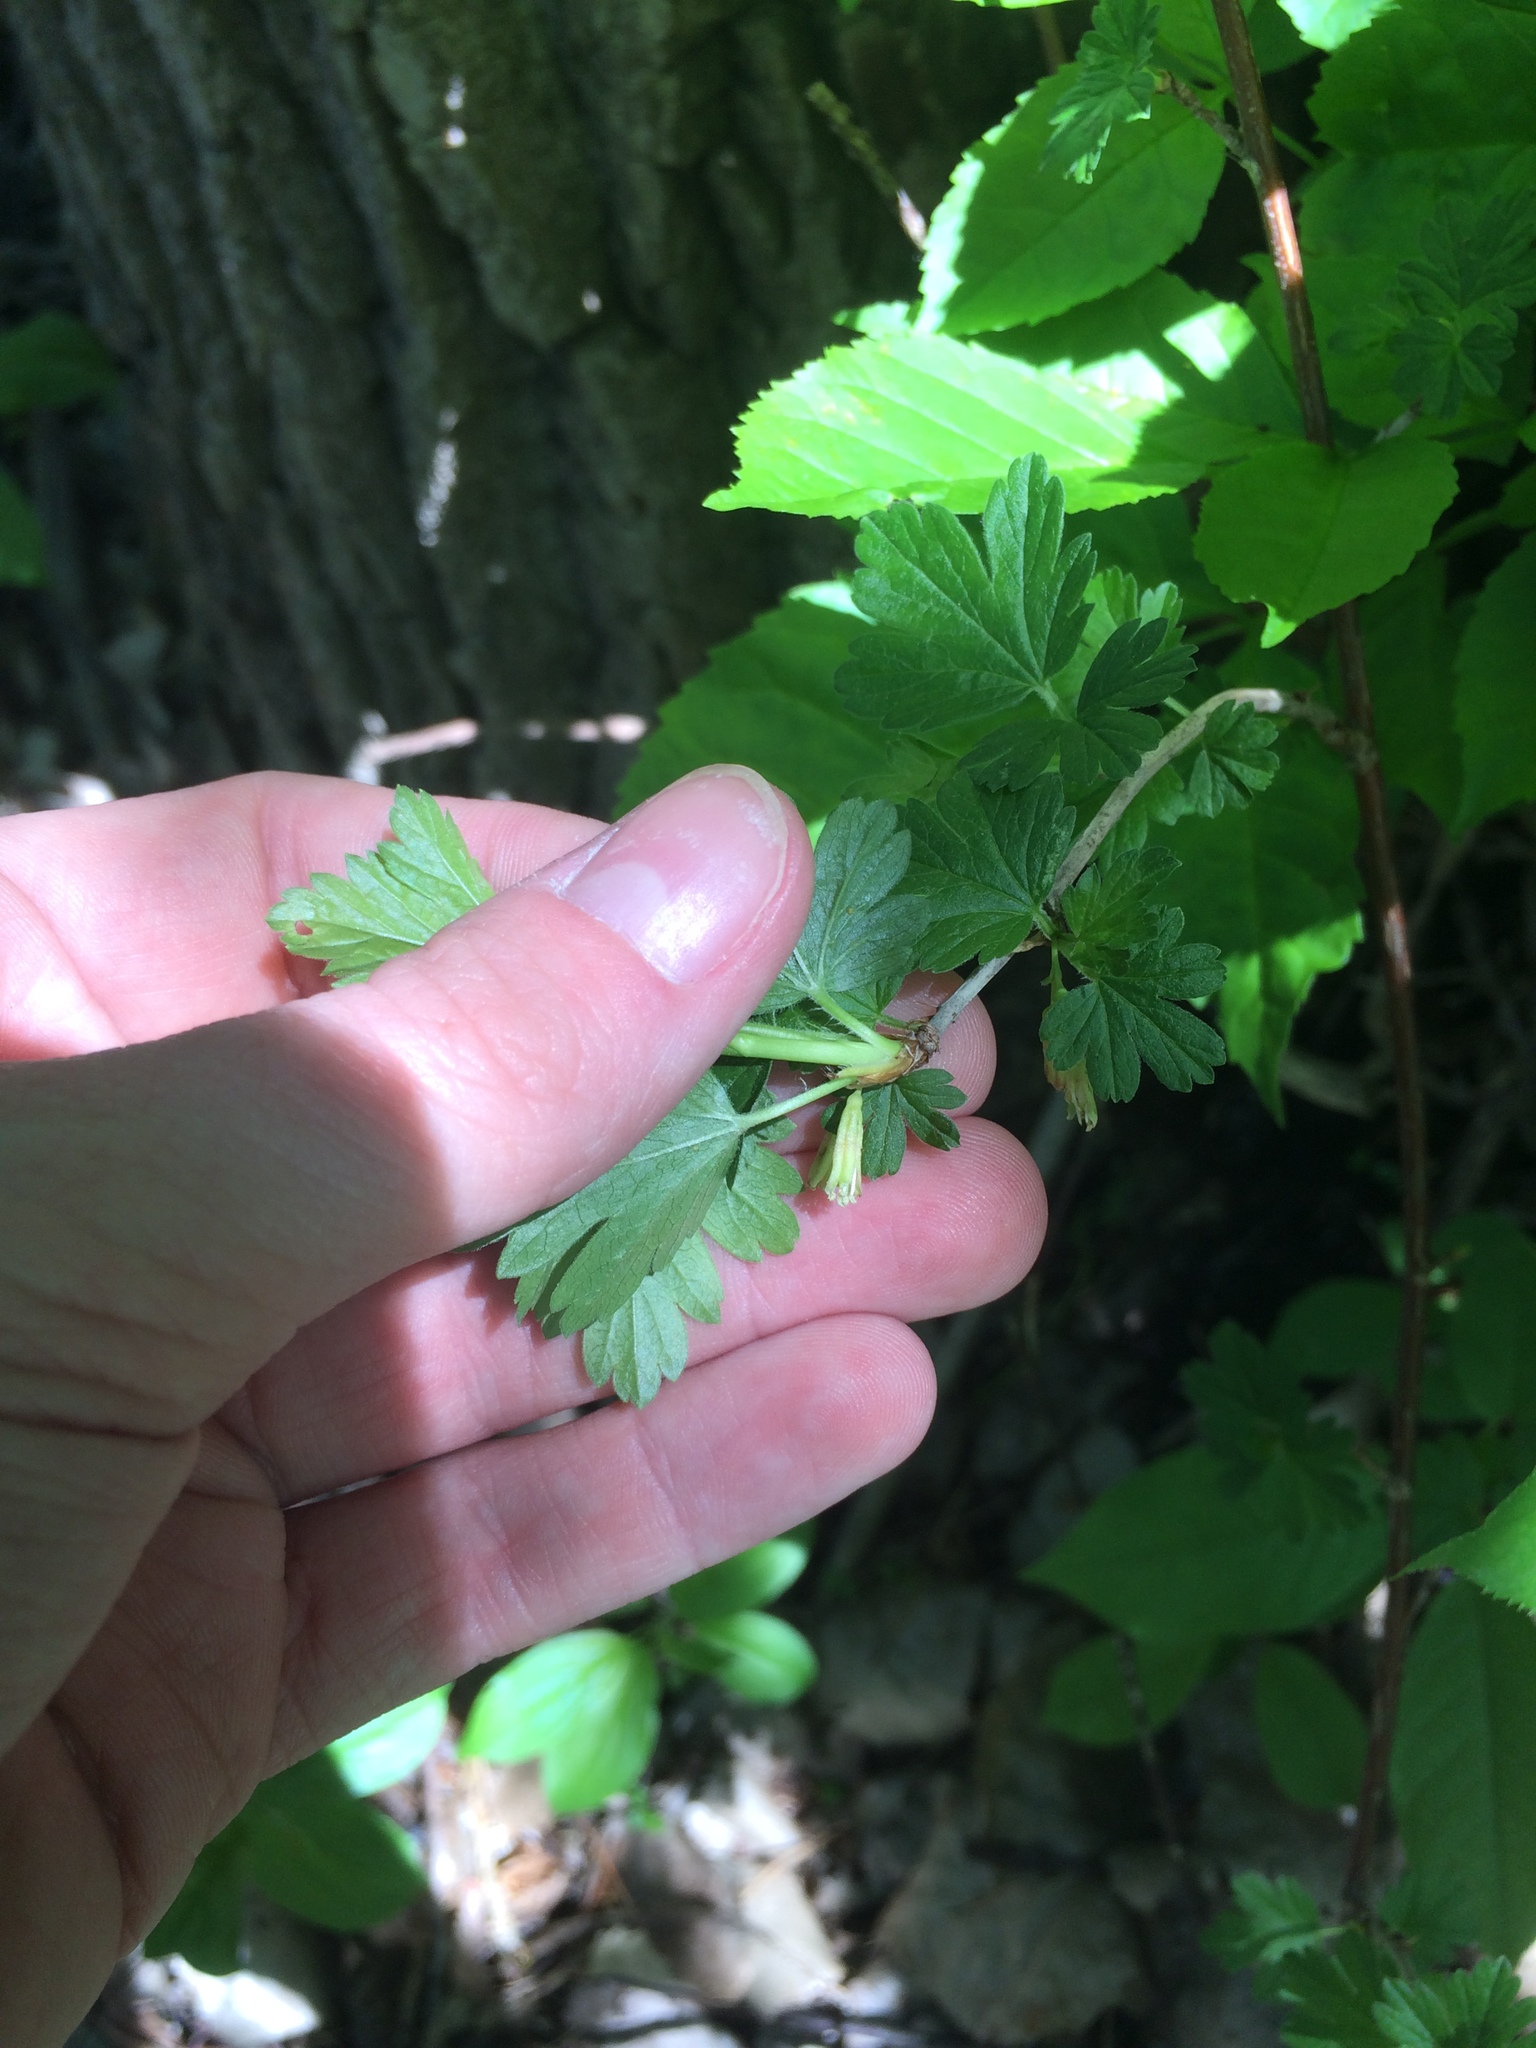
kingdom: Plantae
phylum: Tracheophyta
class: Magnoliopsida
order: Saxifragales
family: Grossulariaceae
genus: Ribes
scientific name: Ribes hirtellum
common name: Hairy gooseberry
